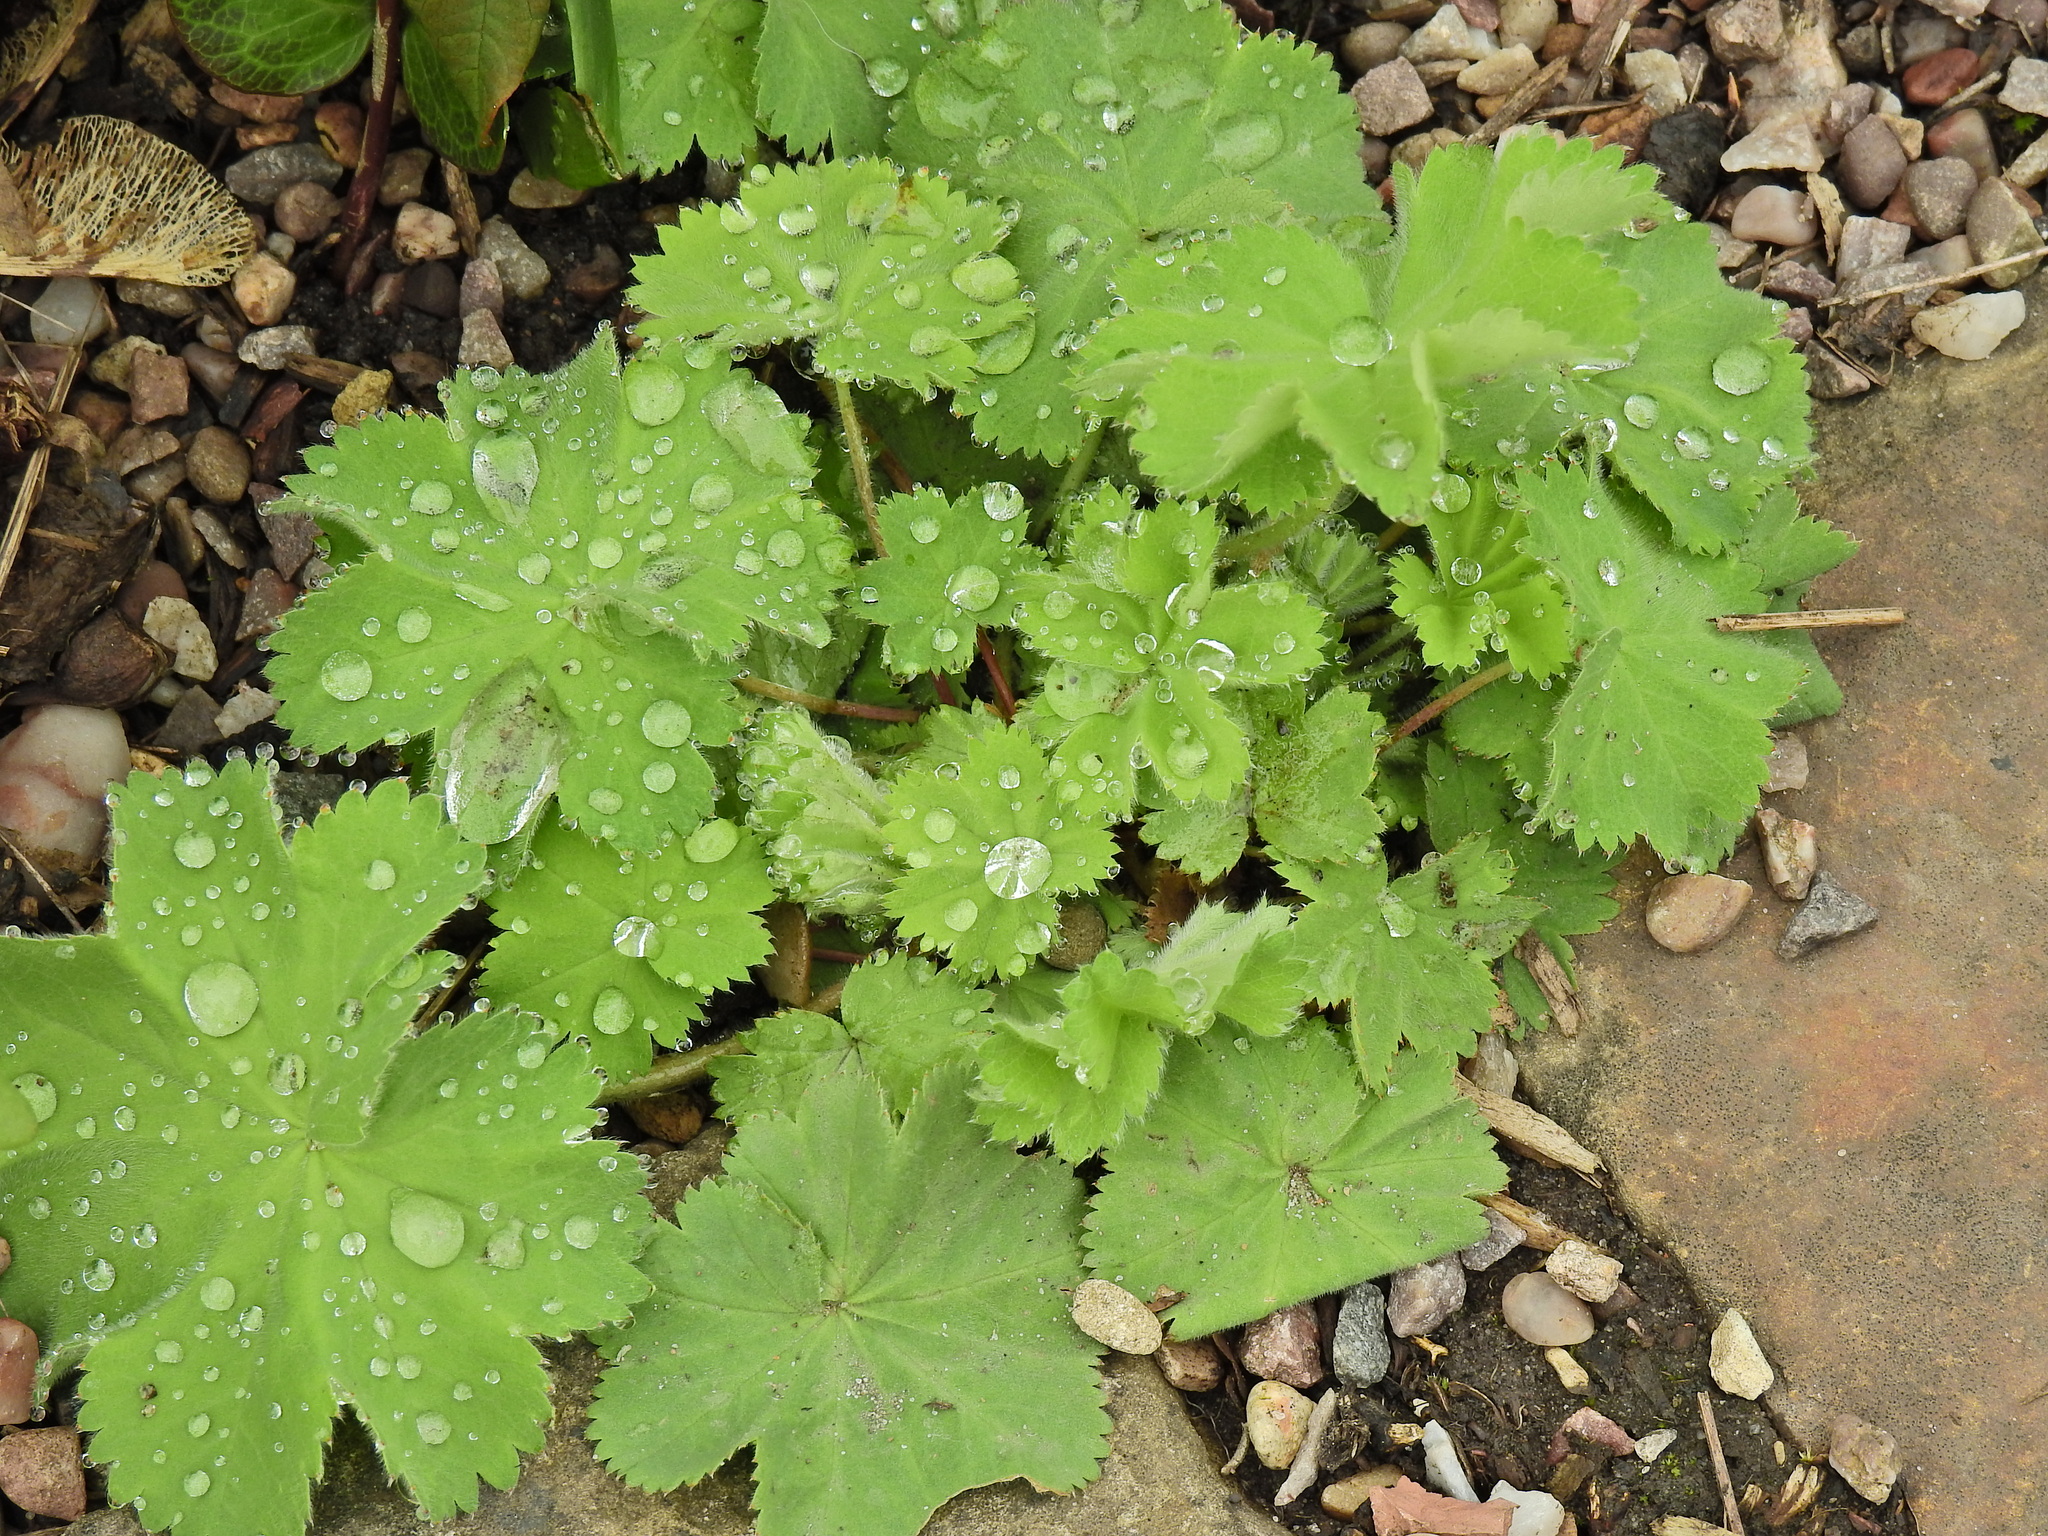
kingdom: Plantae
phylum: Tracheophyta
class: Magnoliopsida
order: Rosales
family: Rosaceae
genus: Alchemilla
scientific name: Alchemilla mollis
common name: Lady's-mantle
